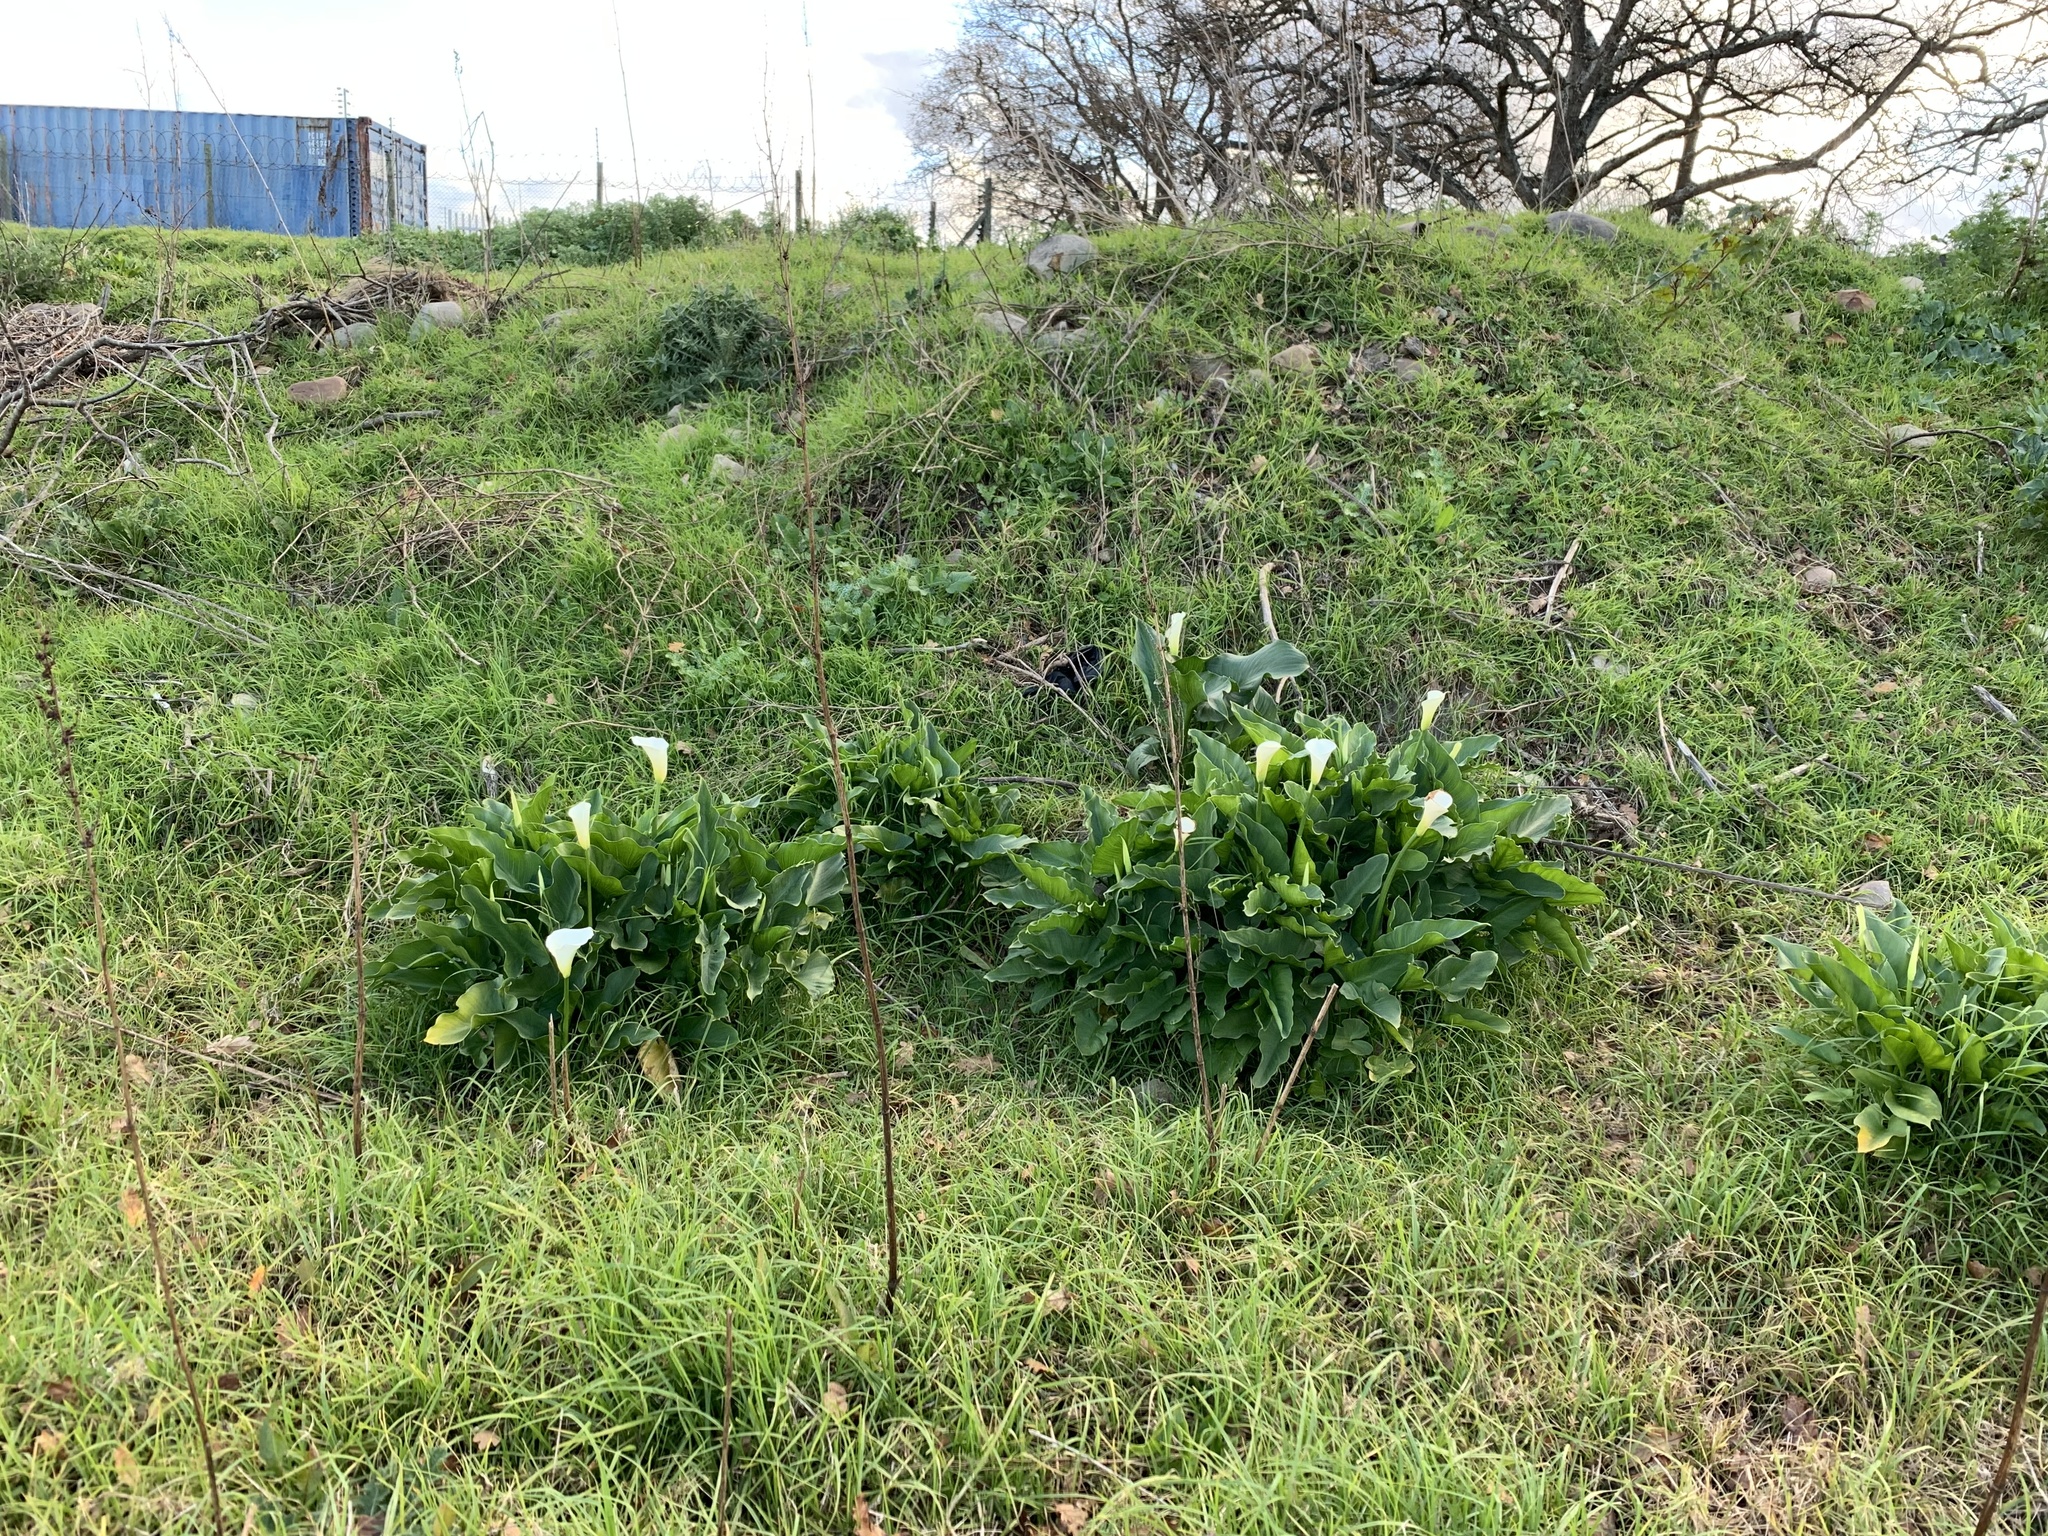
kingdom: Plantae
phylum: Tracheophyta
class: Liliopsida
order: Alismatales
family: Araceae
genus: Zantedeschia
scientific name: Zantedeschia aethiopica
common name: Altar-lily
